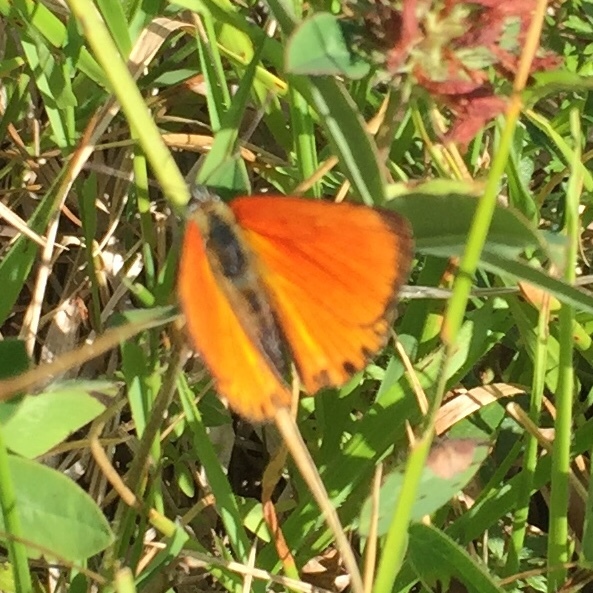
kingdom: Animalia
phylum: Arthropoda
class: Insecta
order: Lepidoptera
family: Lycaenidae
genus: Lycaena
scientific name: Lycaena virgaureae
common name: Scarce copper
